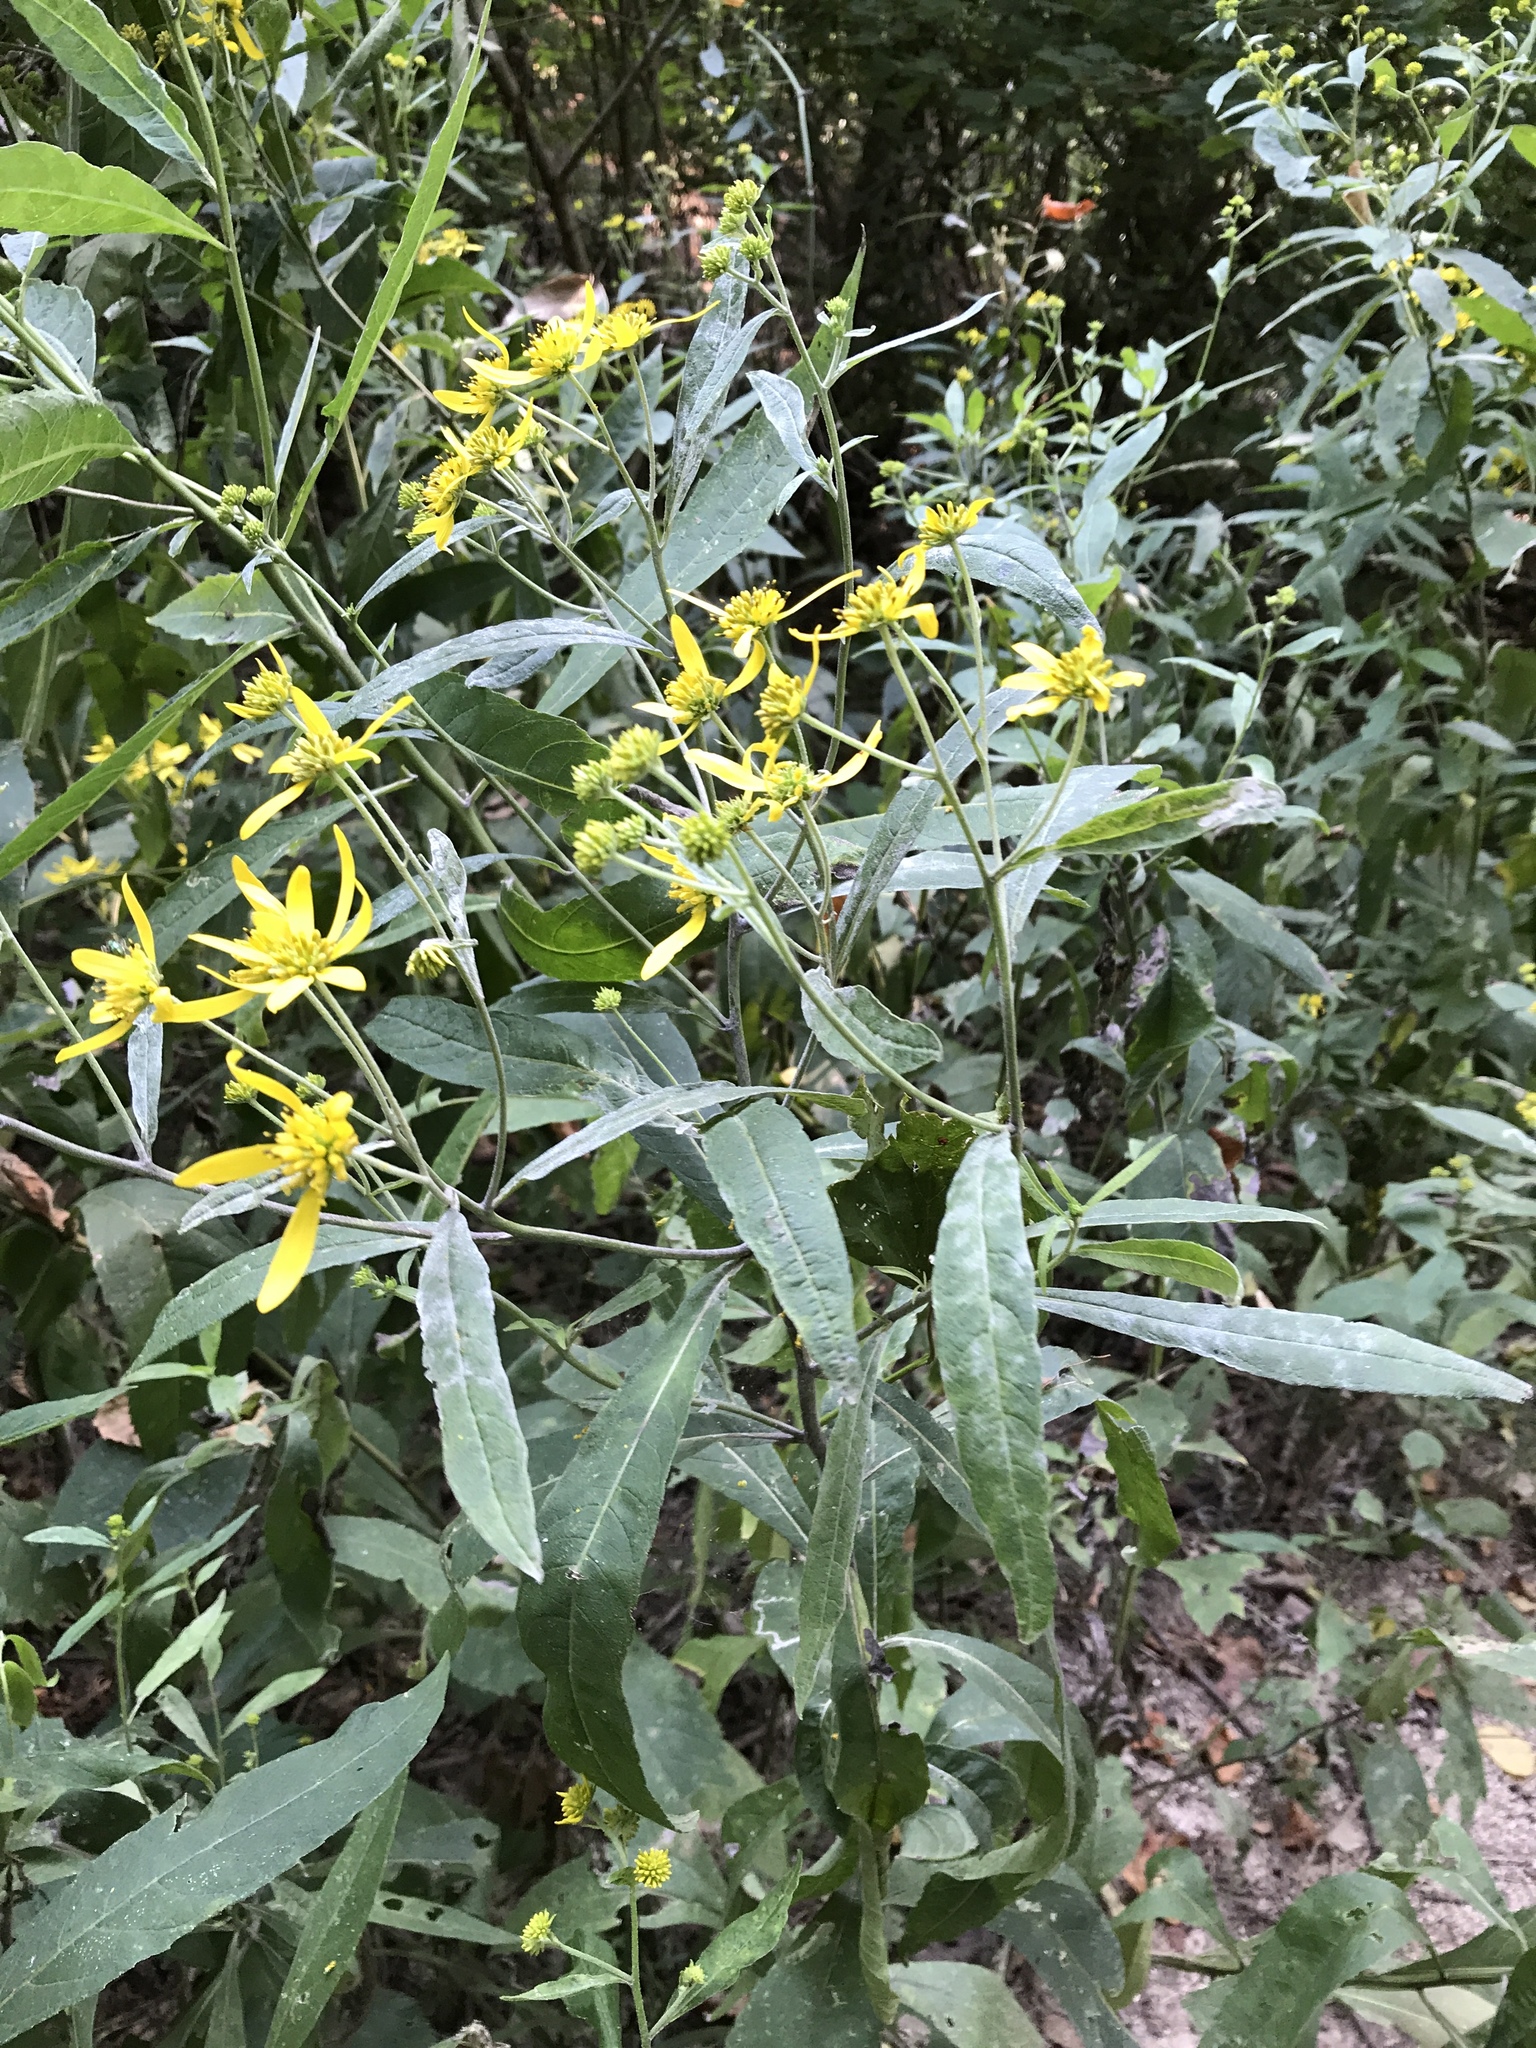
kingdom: Plantae
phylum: Tracheophyta
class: Magnoliopsida
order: Asterales
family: Asteraceae
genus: Verbesina
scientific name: Verbesina alternifolia
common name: Wingstem
